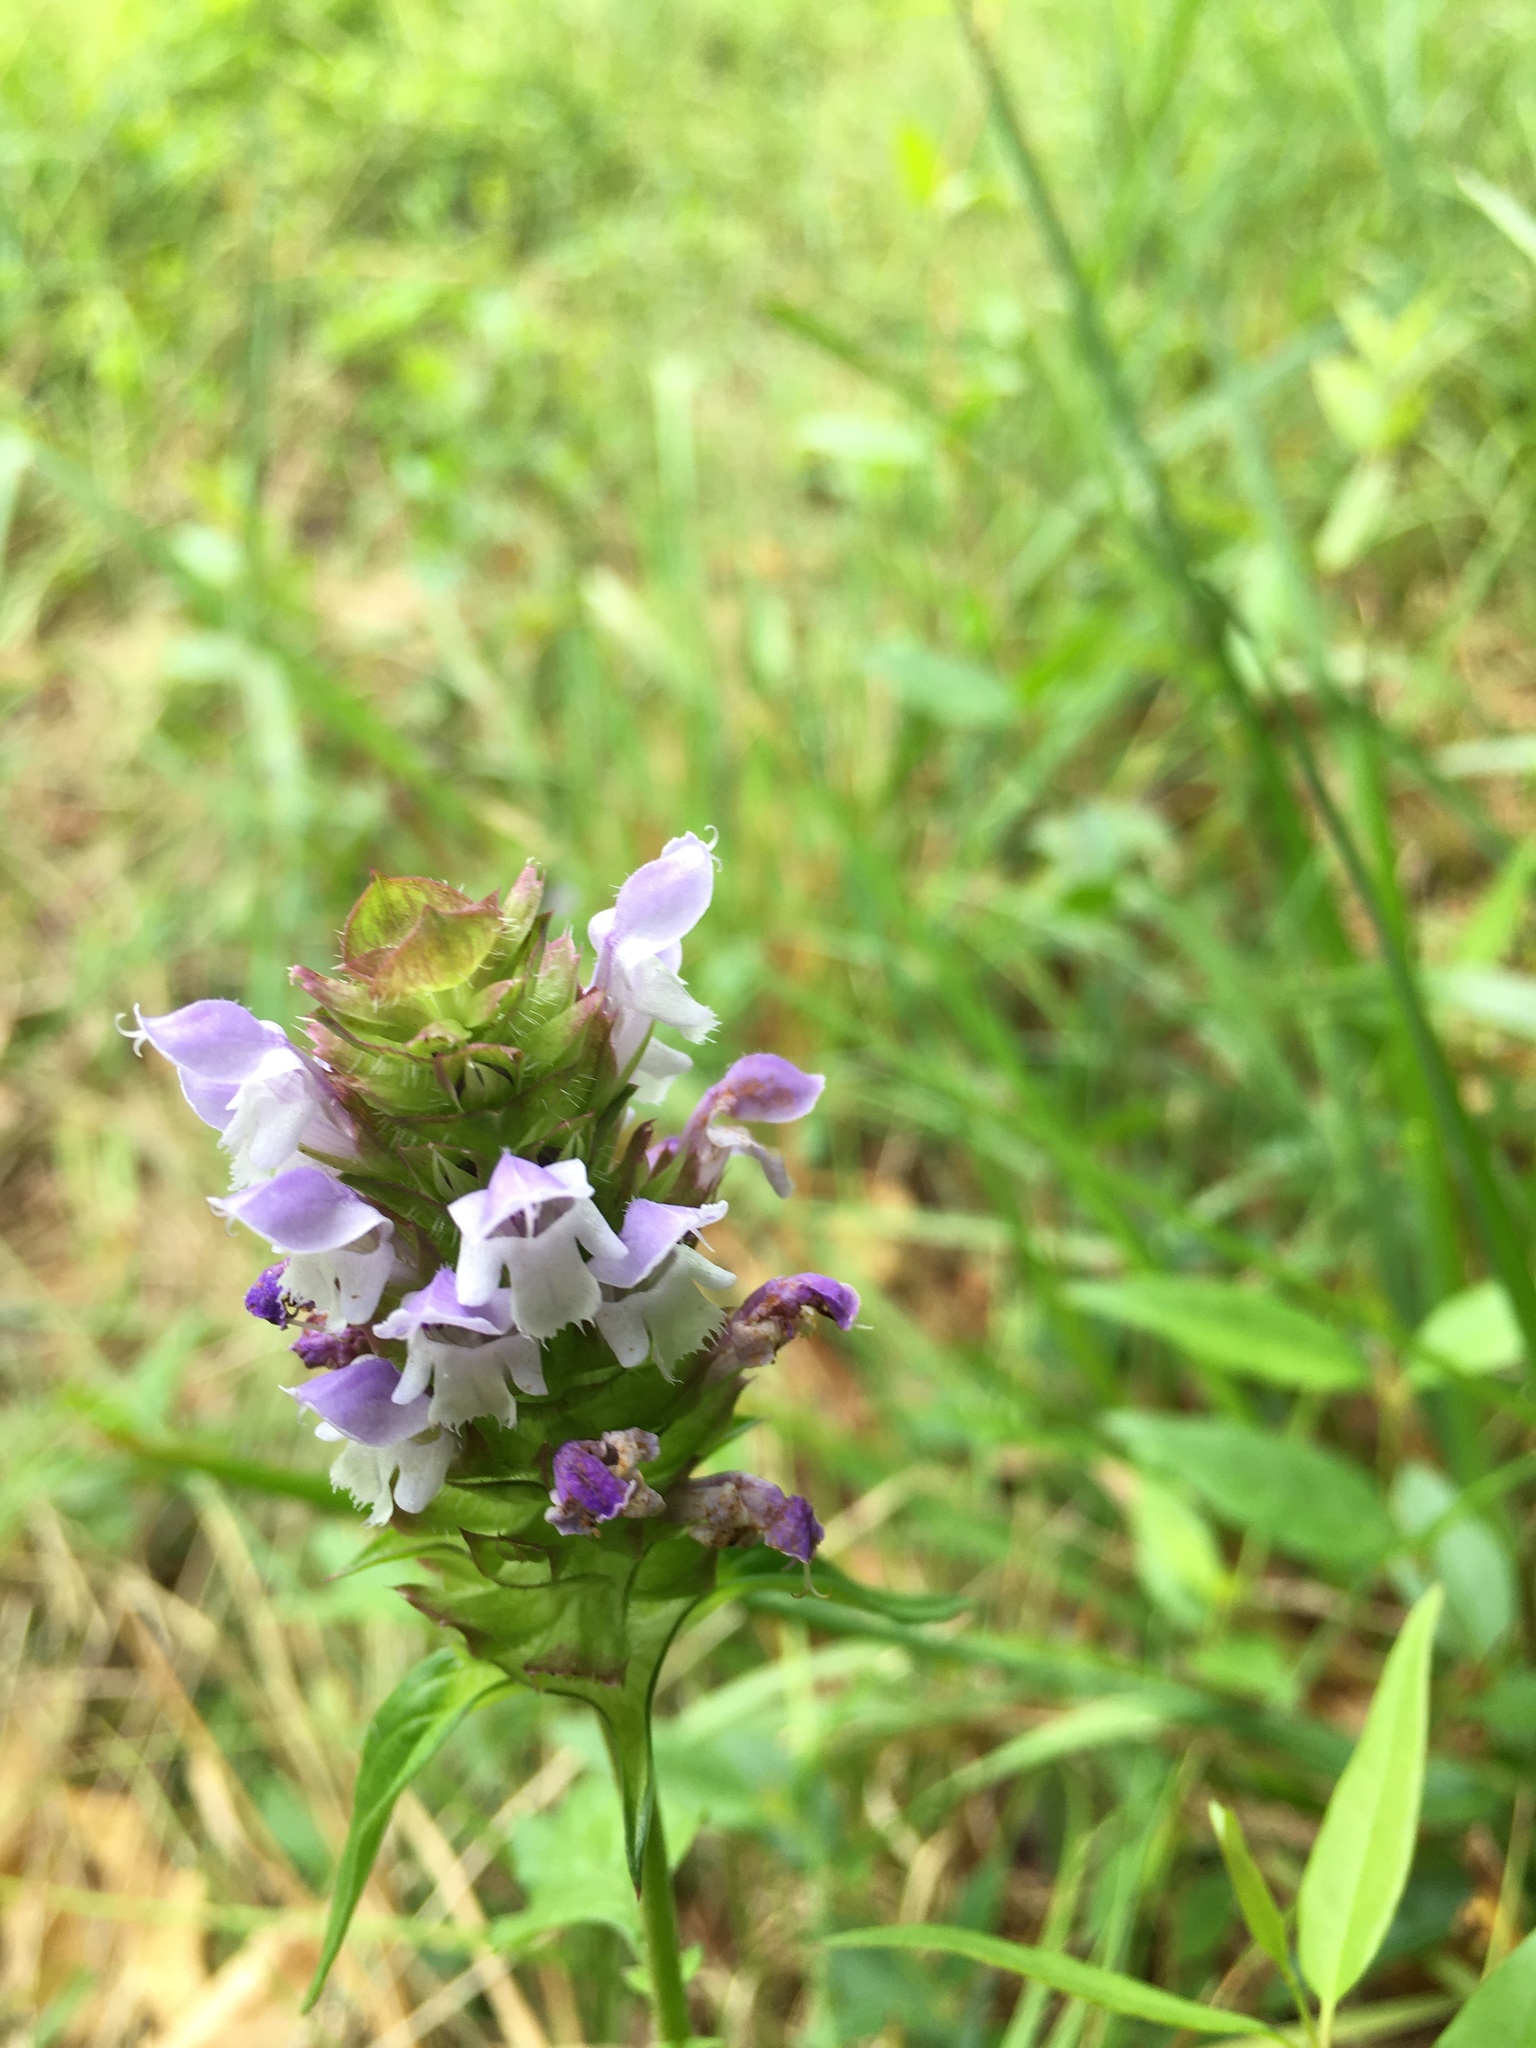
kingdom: Plantae
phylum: Tracheophyta
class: Magnoliopsida
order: Lamiales
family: Lamiaceae
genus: Prunella
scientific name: Prunella vulgaris
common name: Heal-all
